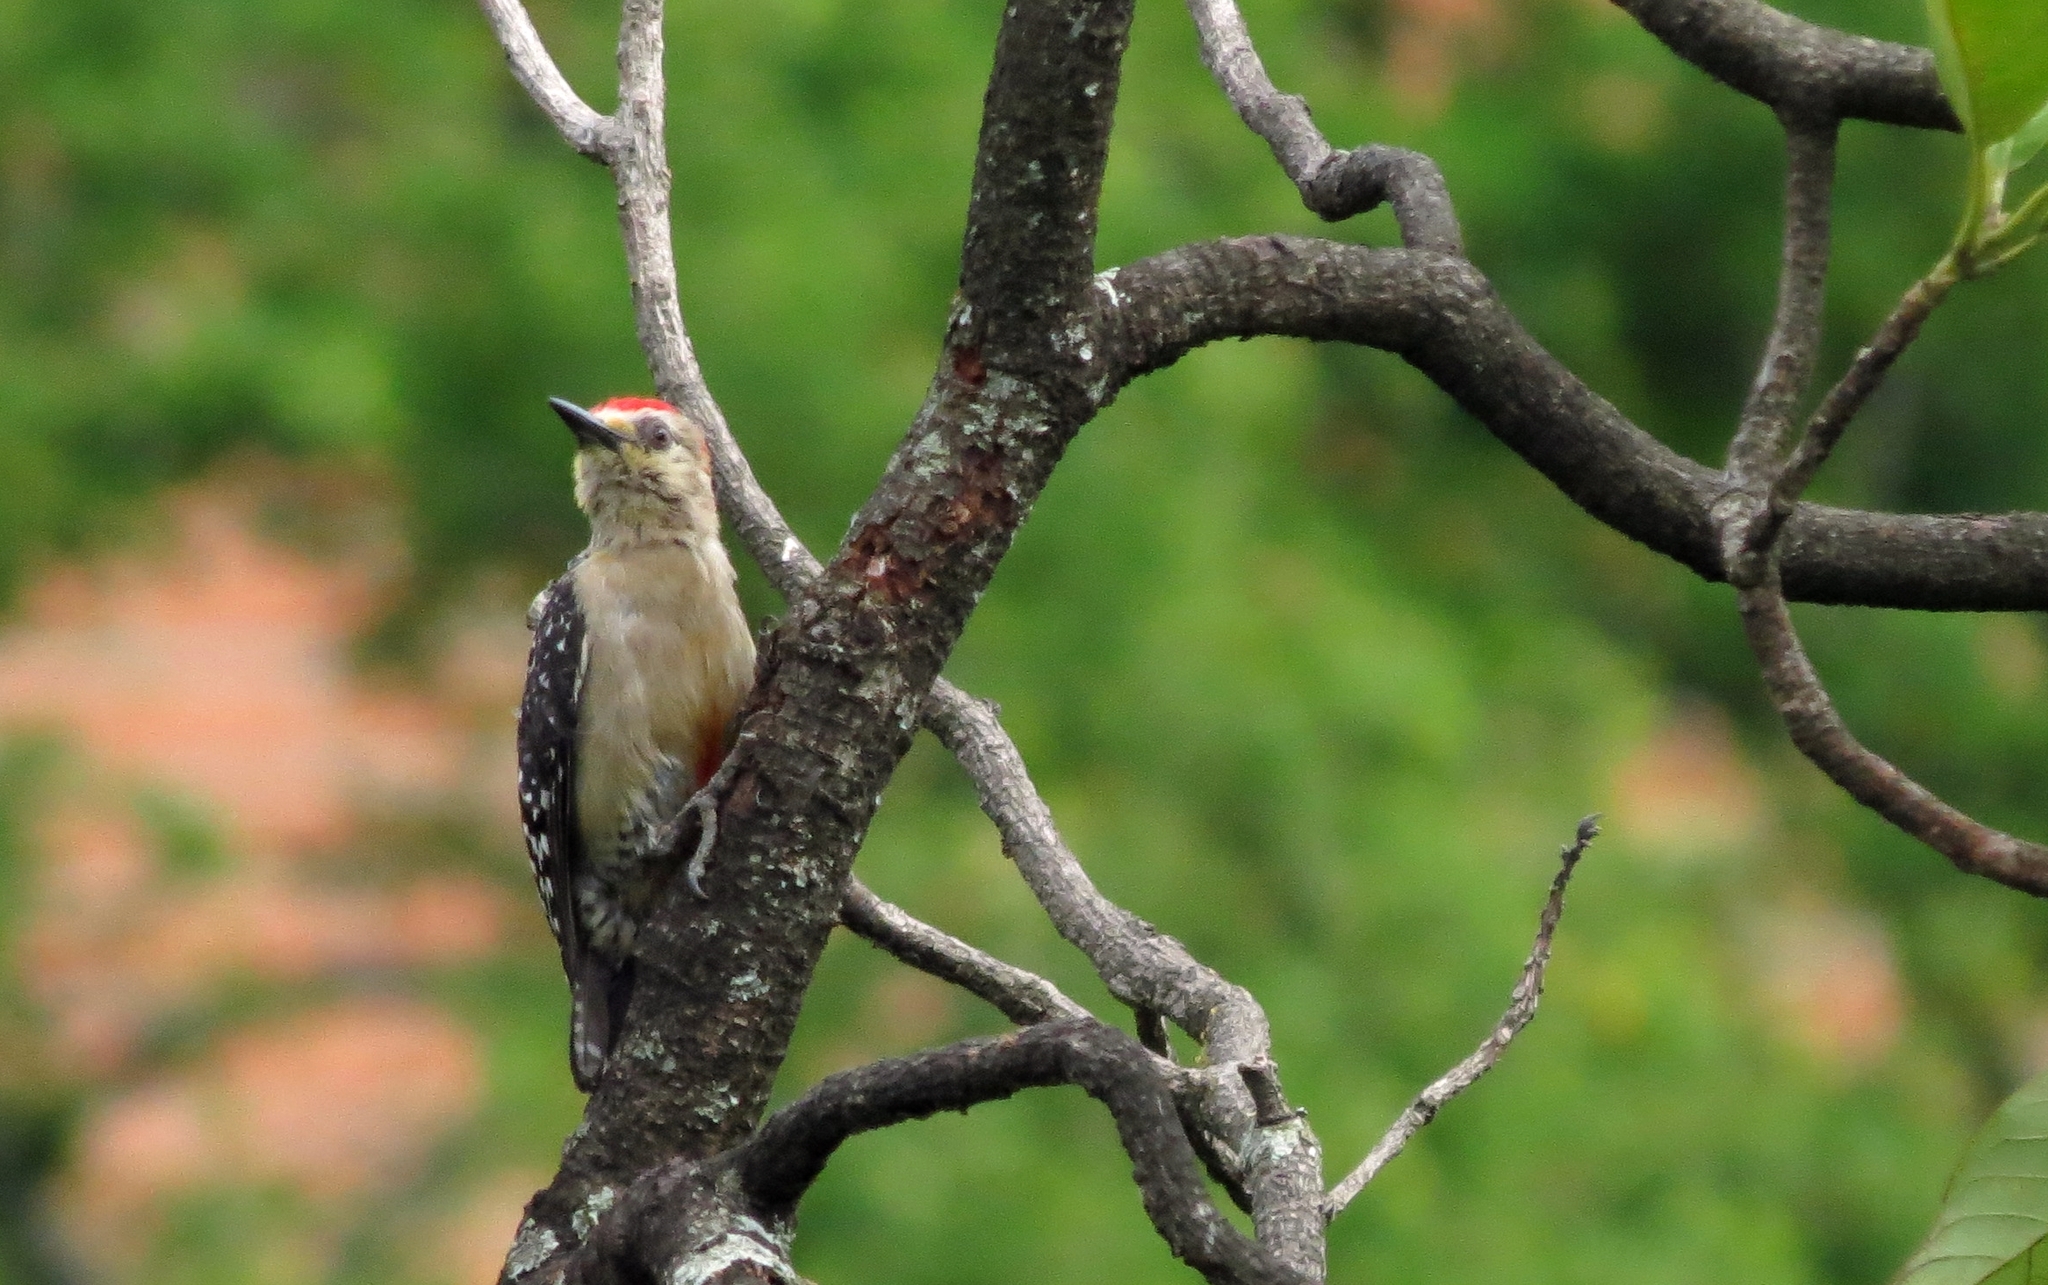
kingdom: Animalia
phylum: Chordata
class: Aves
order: Piciformes
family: Picidae
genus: Melanerpes
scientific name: Melanerpes rubricapillus
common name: Red-crowned woodpecker
